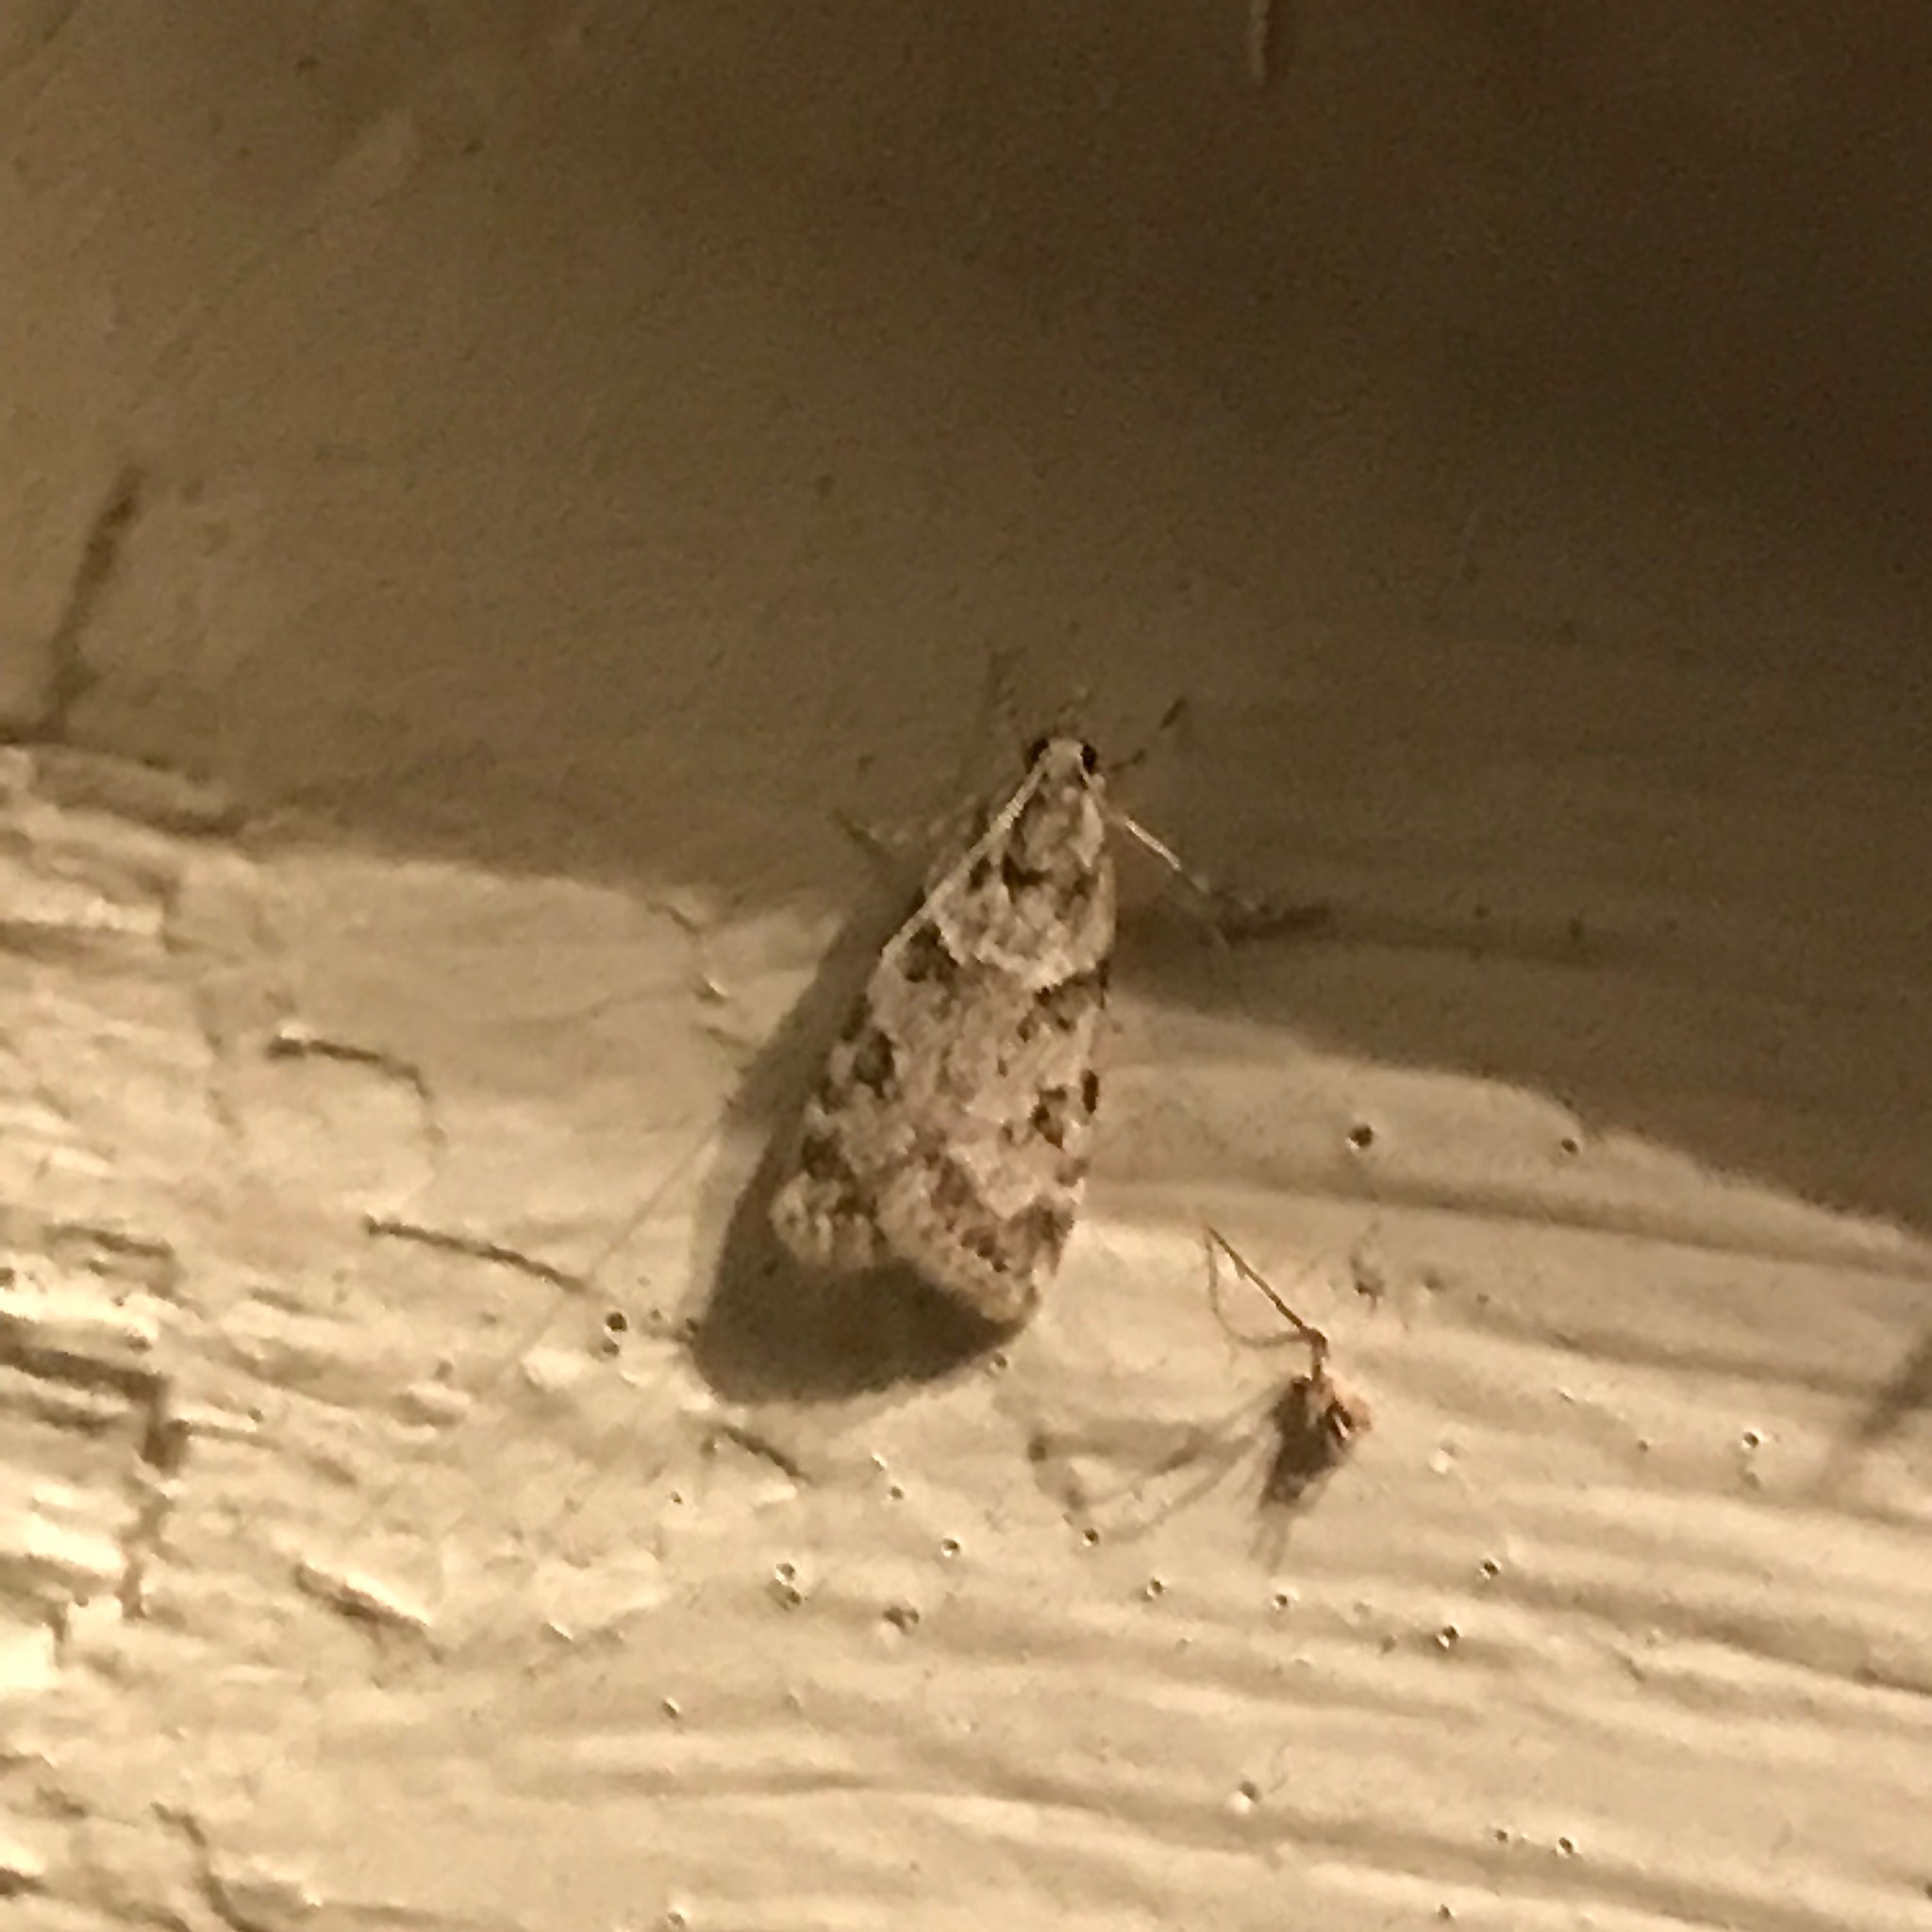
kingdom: Animalia
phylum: Arthropoda
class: Insecta
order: Lepidoptera
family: Crambidae
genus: Scoparia
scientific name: Scoparia biplagialis
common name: Double-striped scoparia moth
